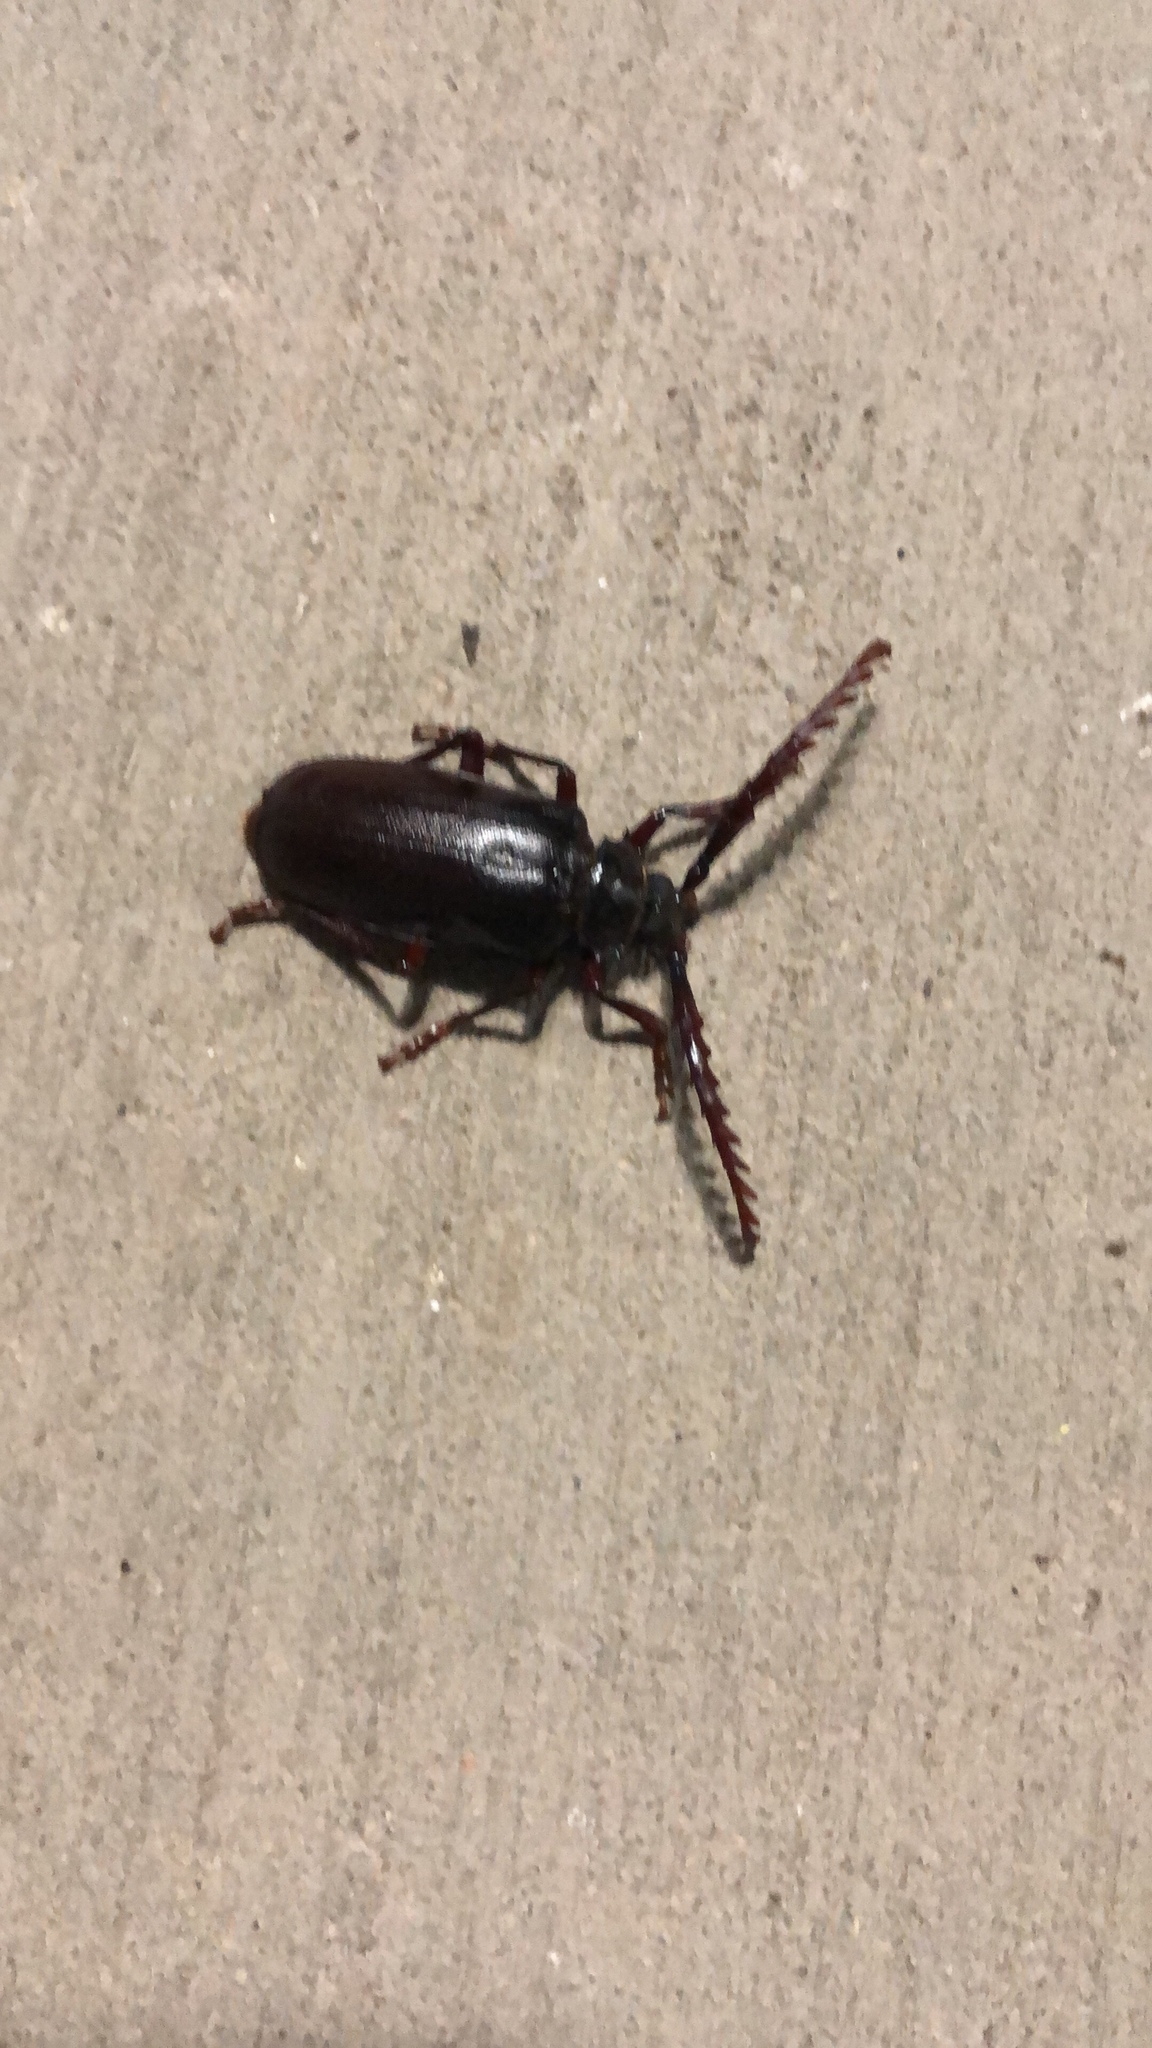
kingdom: Animalia
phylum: Arthropoda
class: Insecta
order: Coleoptera
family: Cerambycidae
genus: Prionus
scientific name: Prionus californicus
